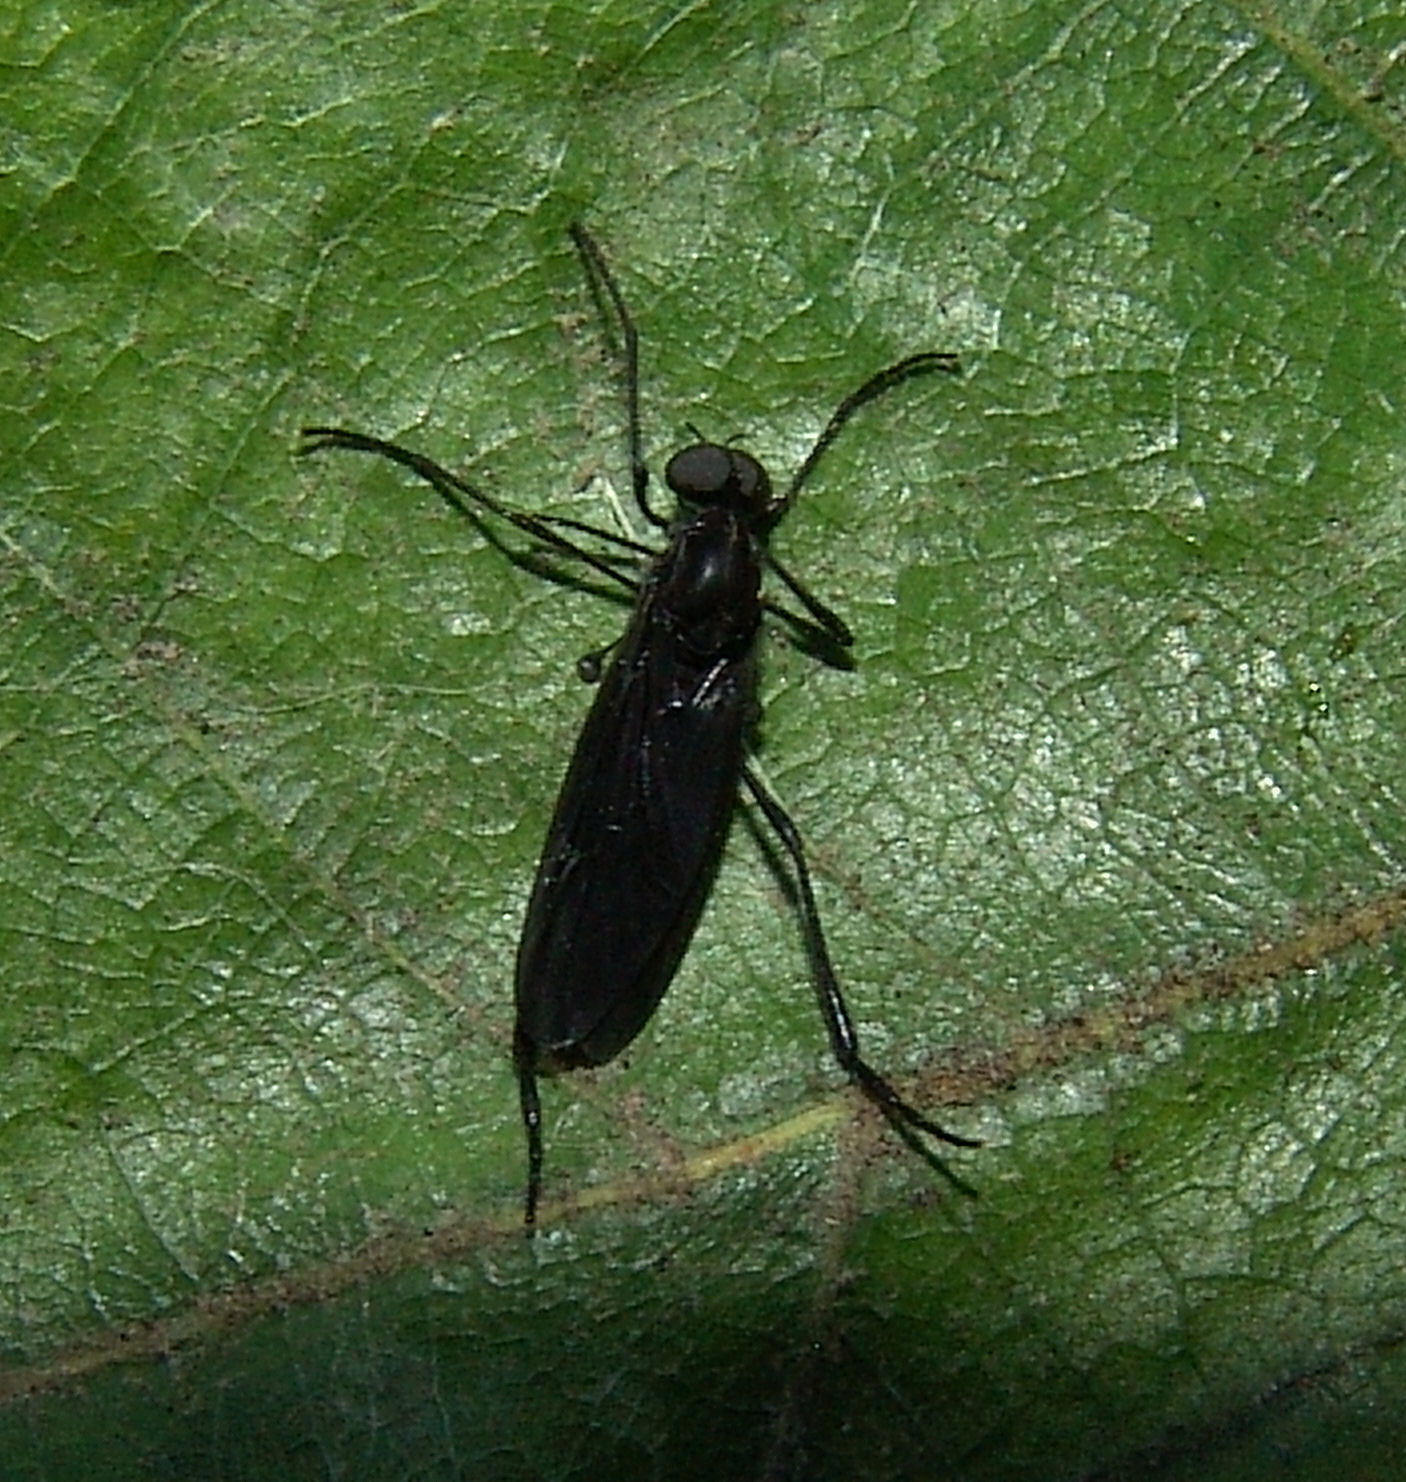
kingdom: Animalia
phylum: Arthropoda
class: Insecta
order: Diptera
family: Bibionidae
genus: Penthetria
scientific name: Penthetria heteroptera
